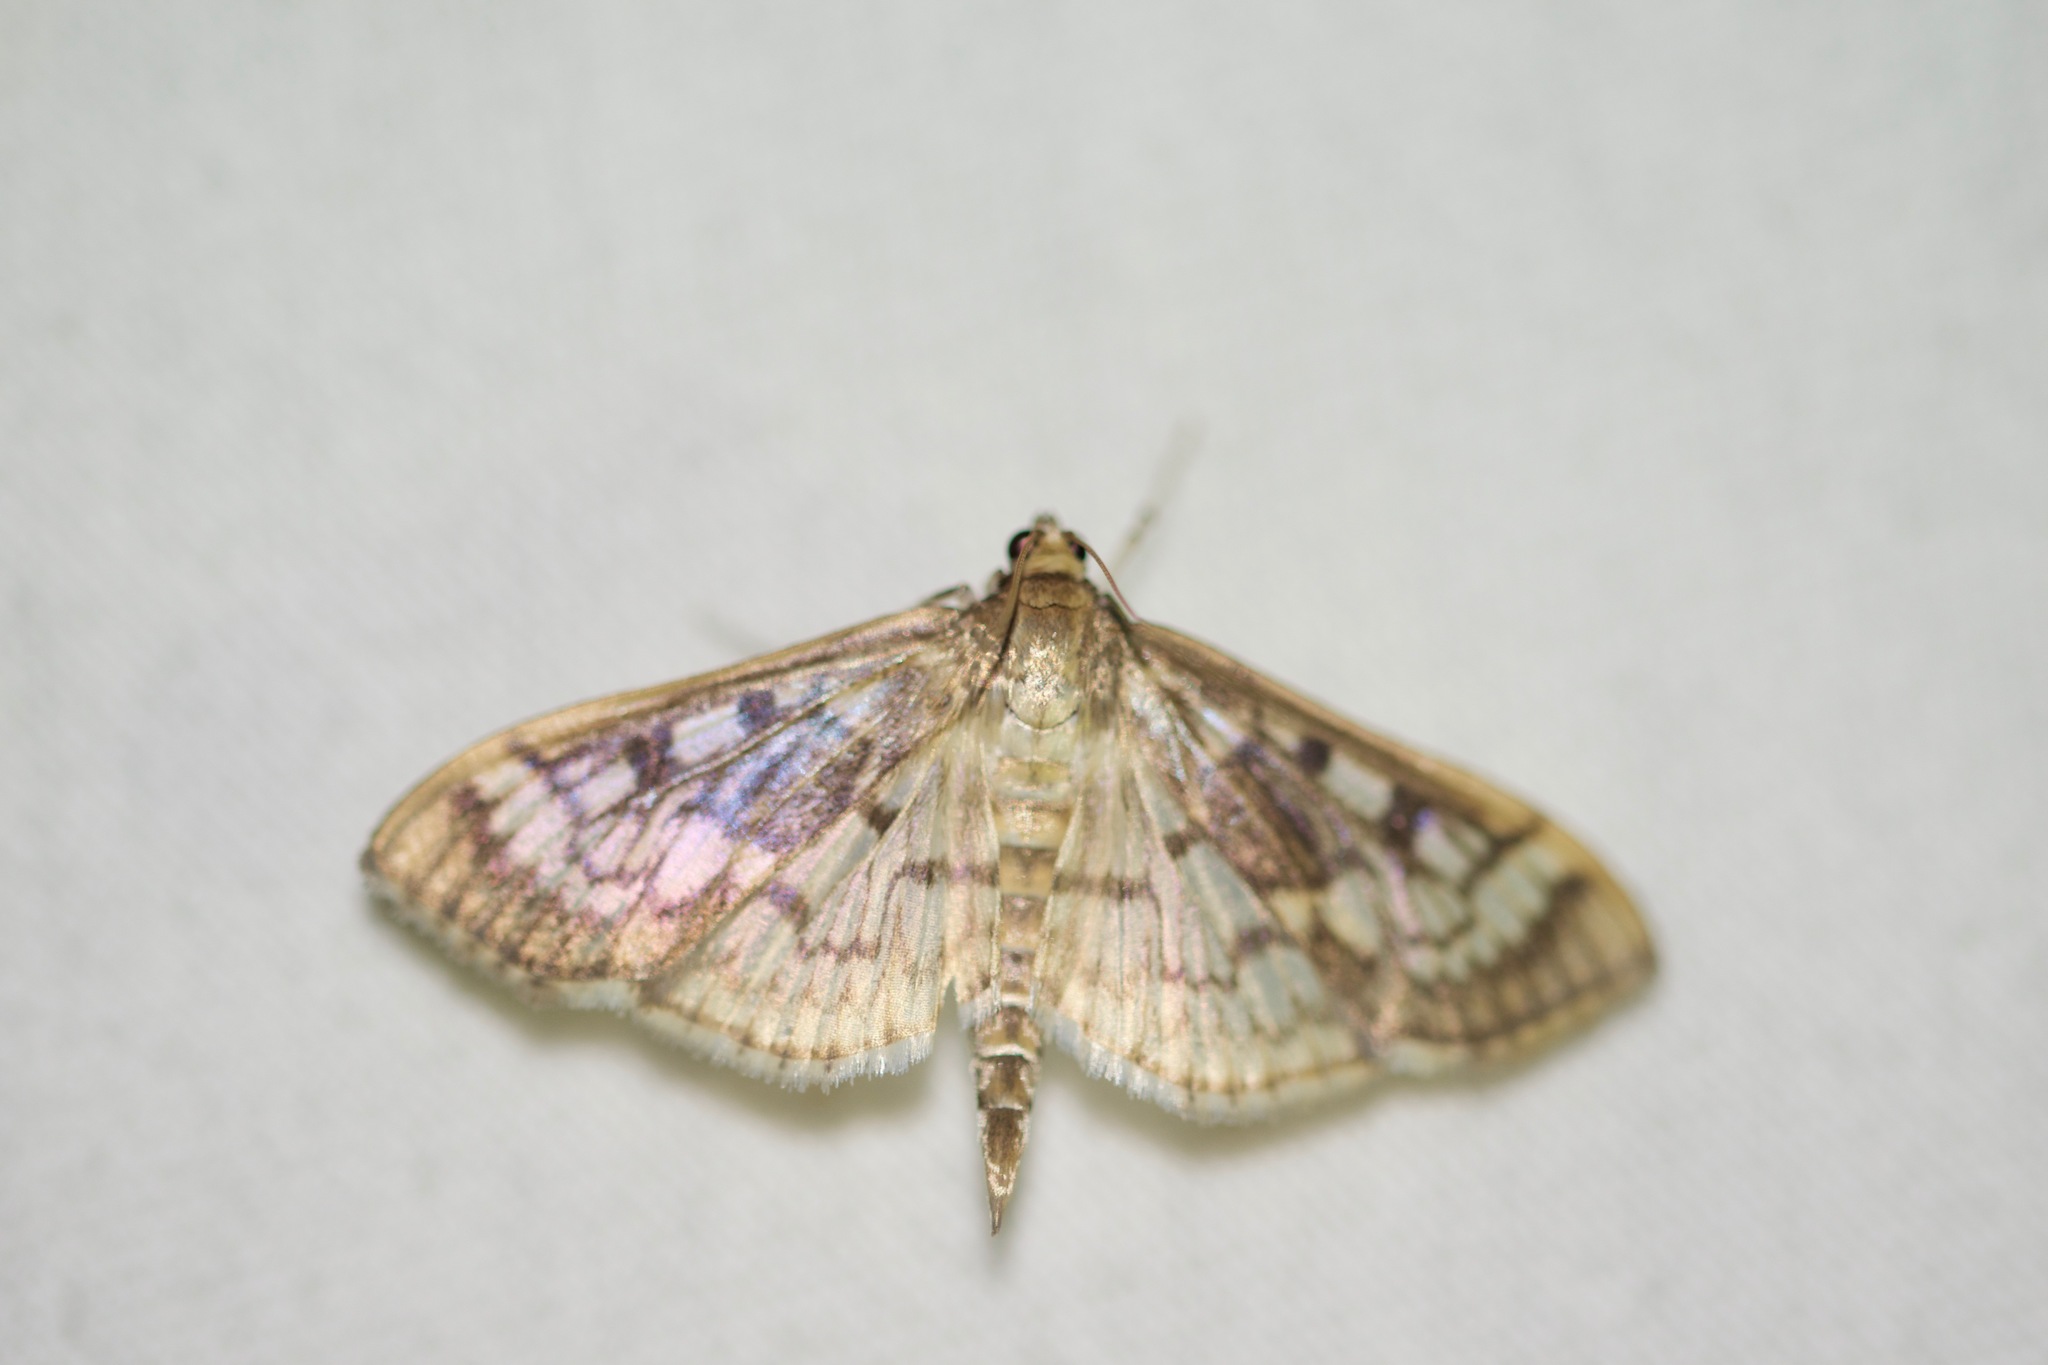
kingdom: Animalia
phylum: Arthropoda
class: Insecta
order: Lepidoptera
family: Crambidae
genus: Herpetogramma
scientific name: Herpetogramma thestealis
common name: Zigzag herpetogramma moth
